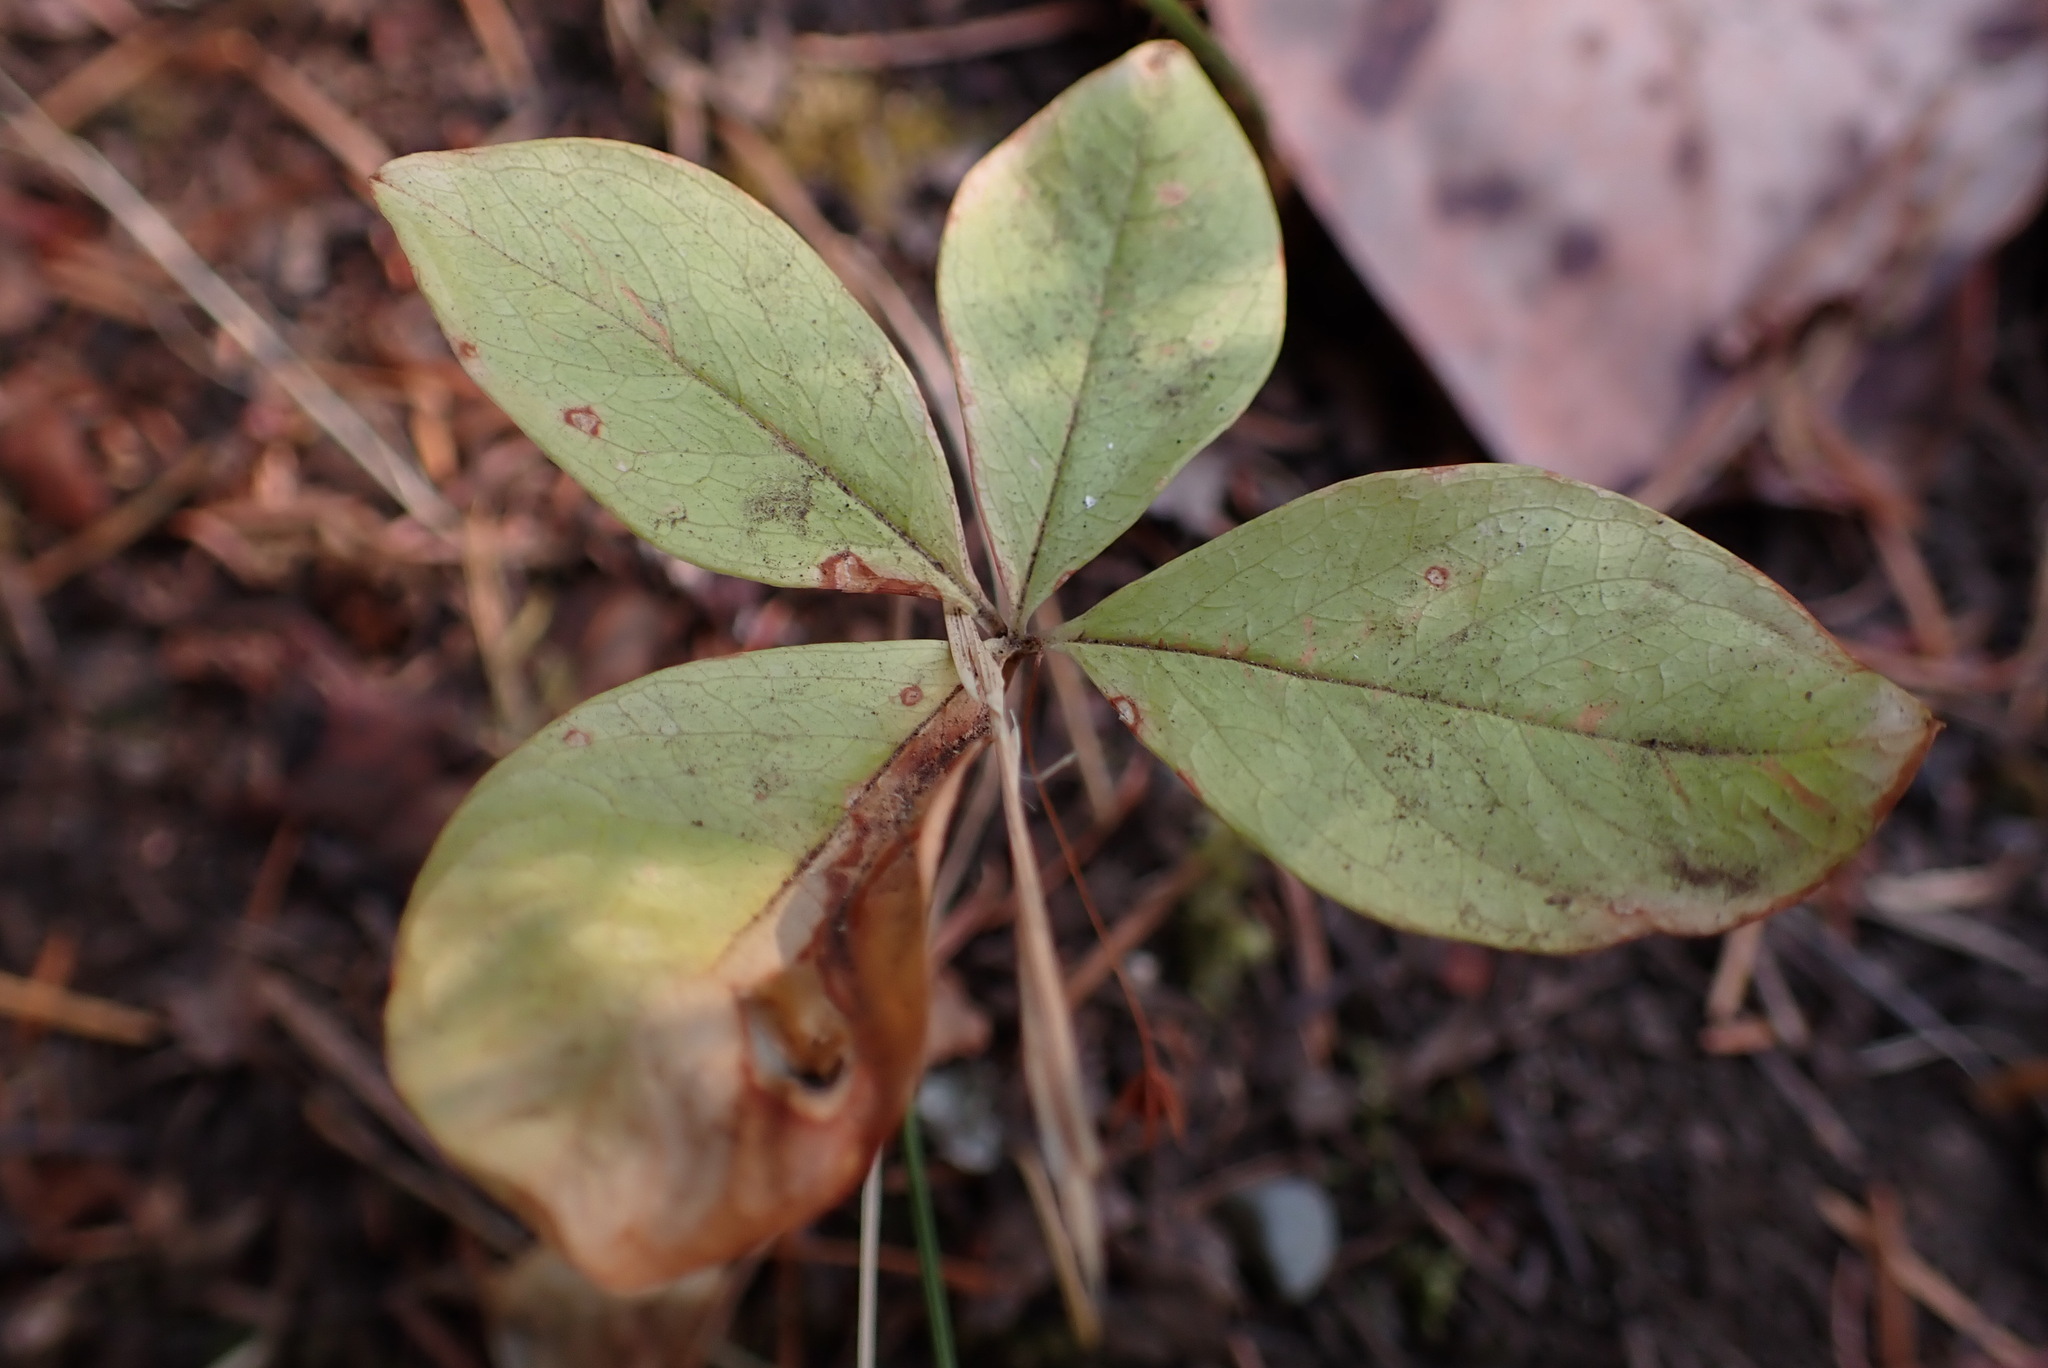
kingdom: Plantae
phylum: Tracheophyta
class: Magnoliopsida
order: Ericales
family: Primulaceae
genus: Lysimachia
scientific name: Lysimachia latifolia
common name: Pacific starflower
